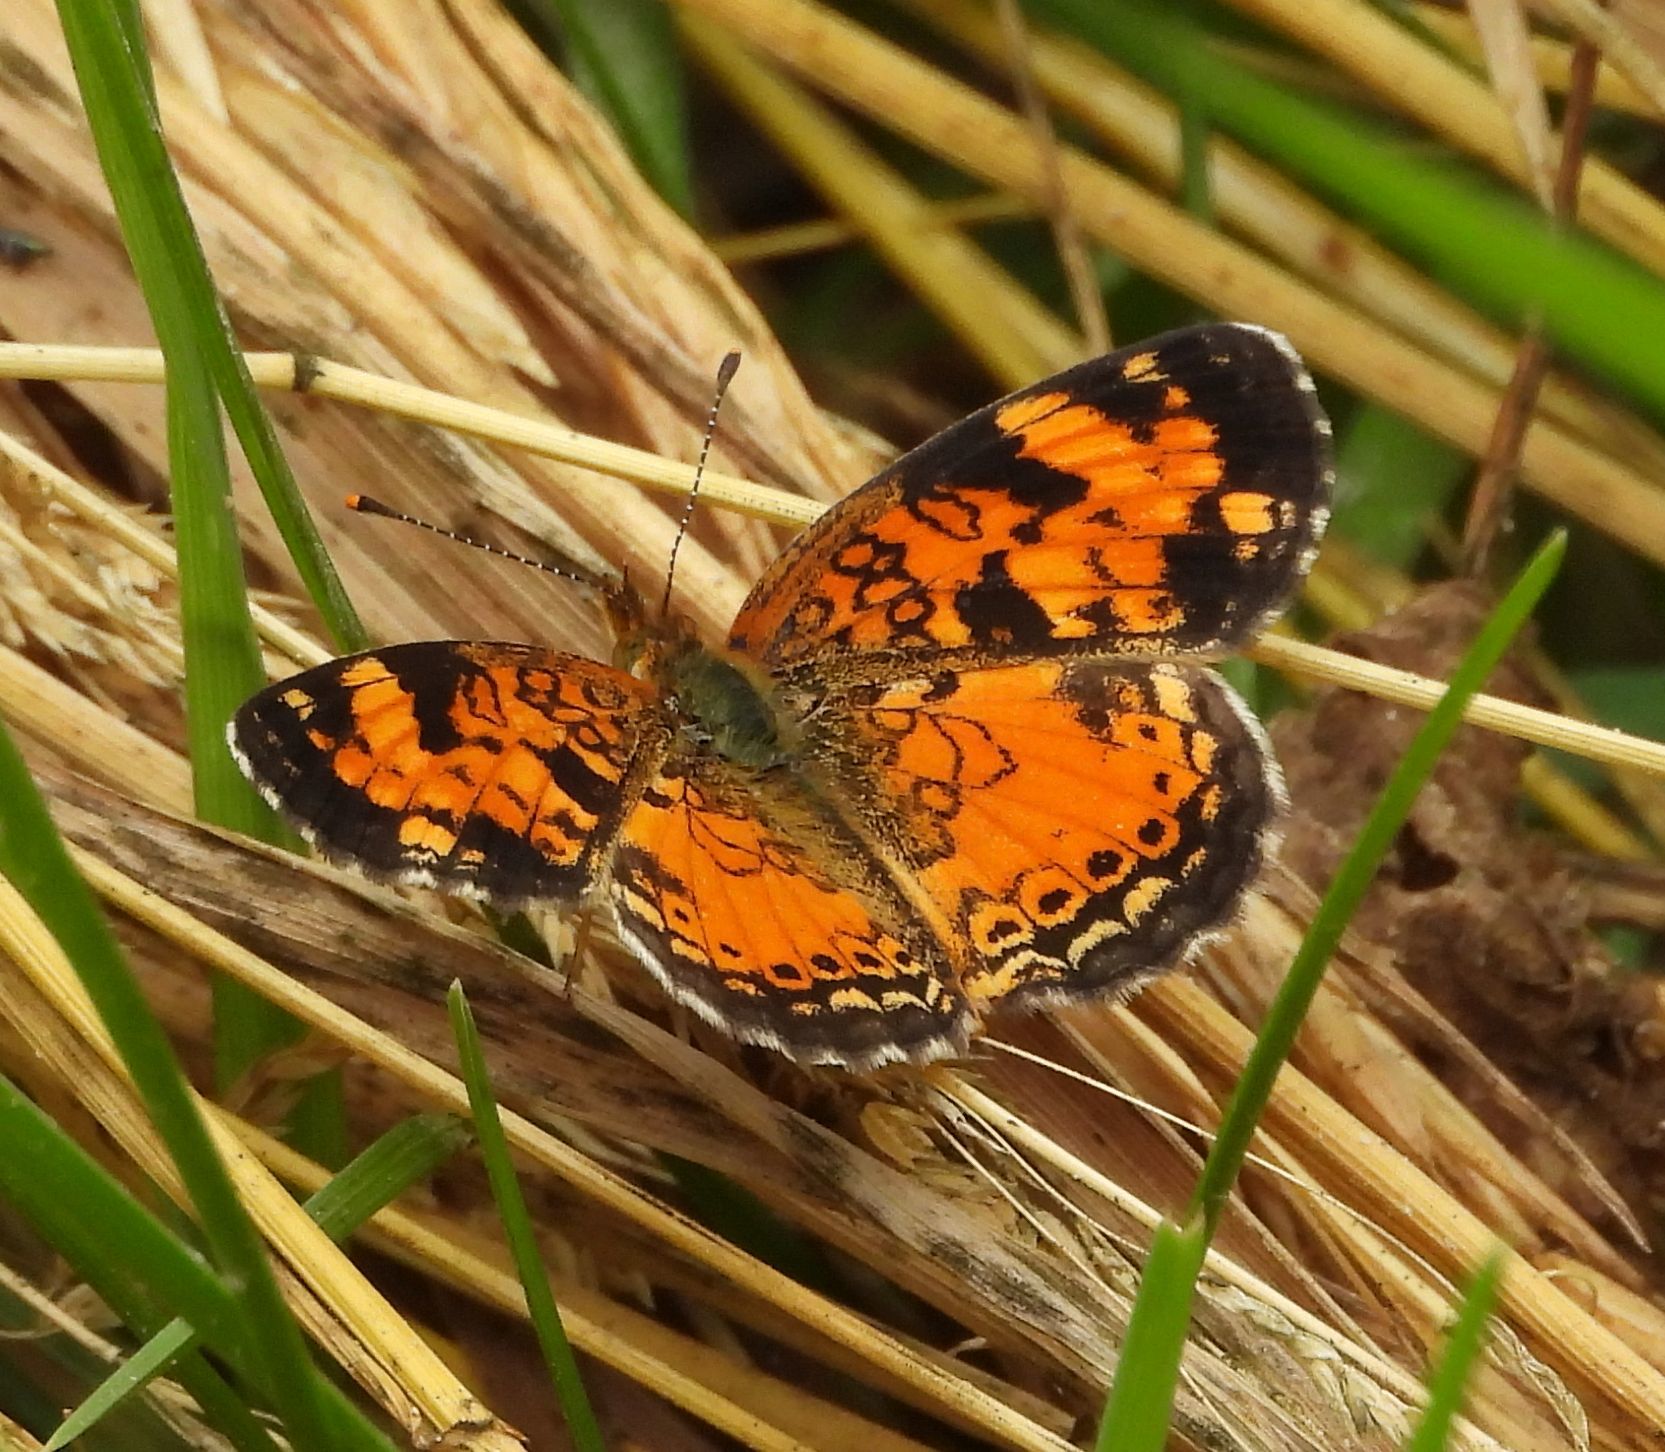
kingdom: Animalia
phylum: Arthropoda
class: Insecta
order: Lepidoptera
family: Nymphalidae
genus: Phyciodes
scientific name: Phyciodes tharos
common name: Pearl crescent
